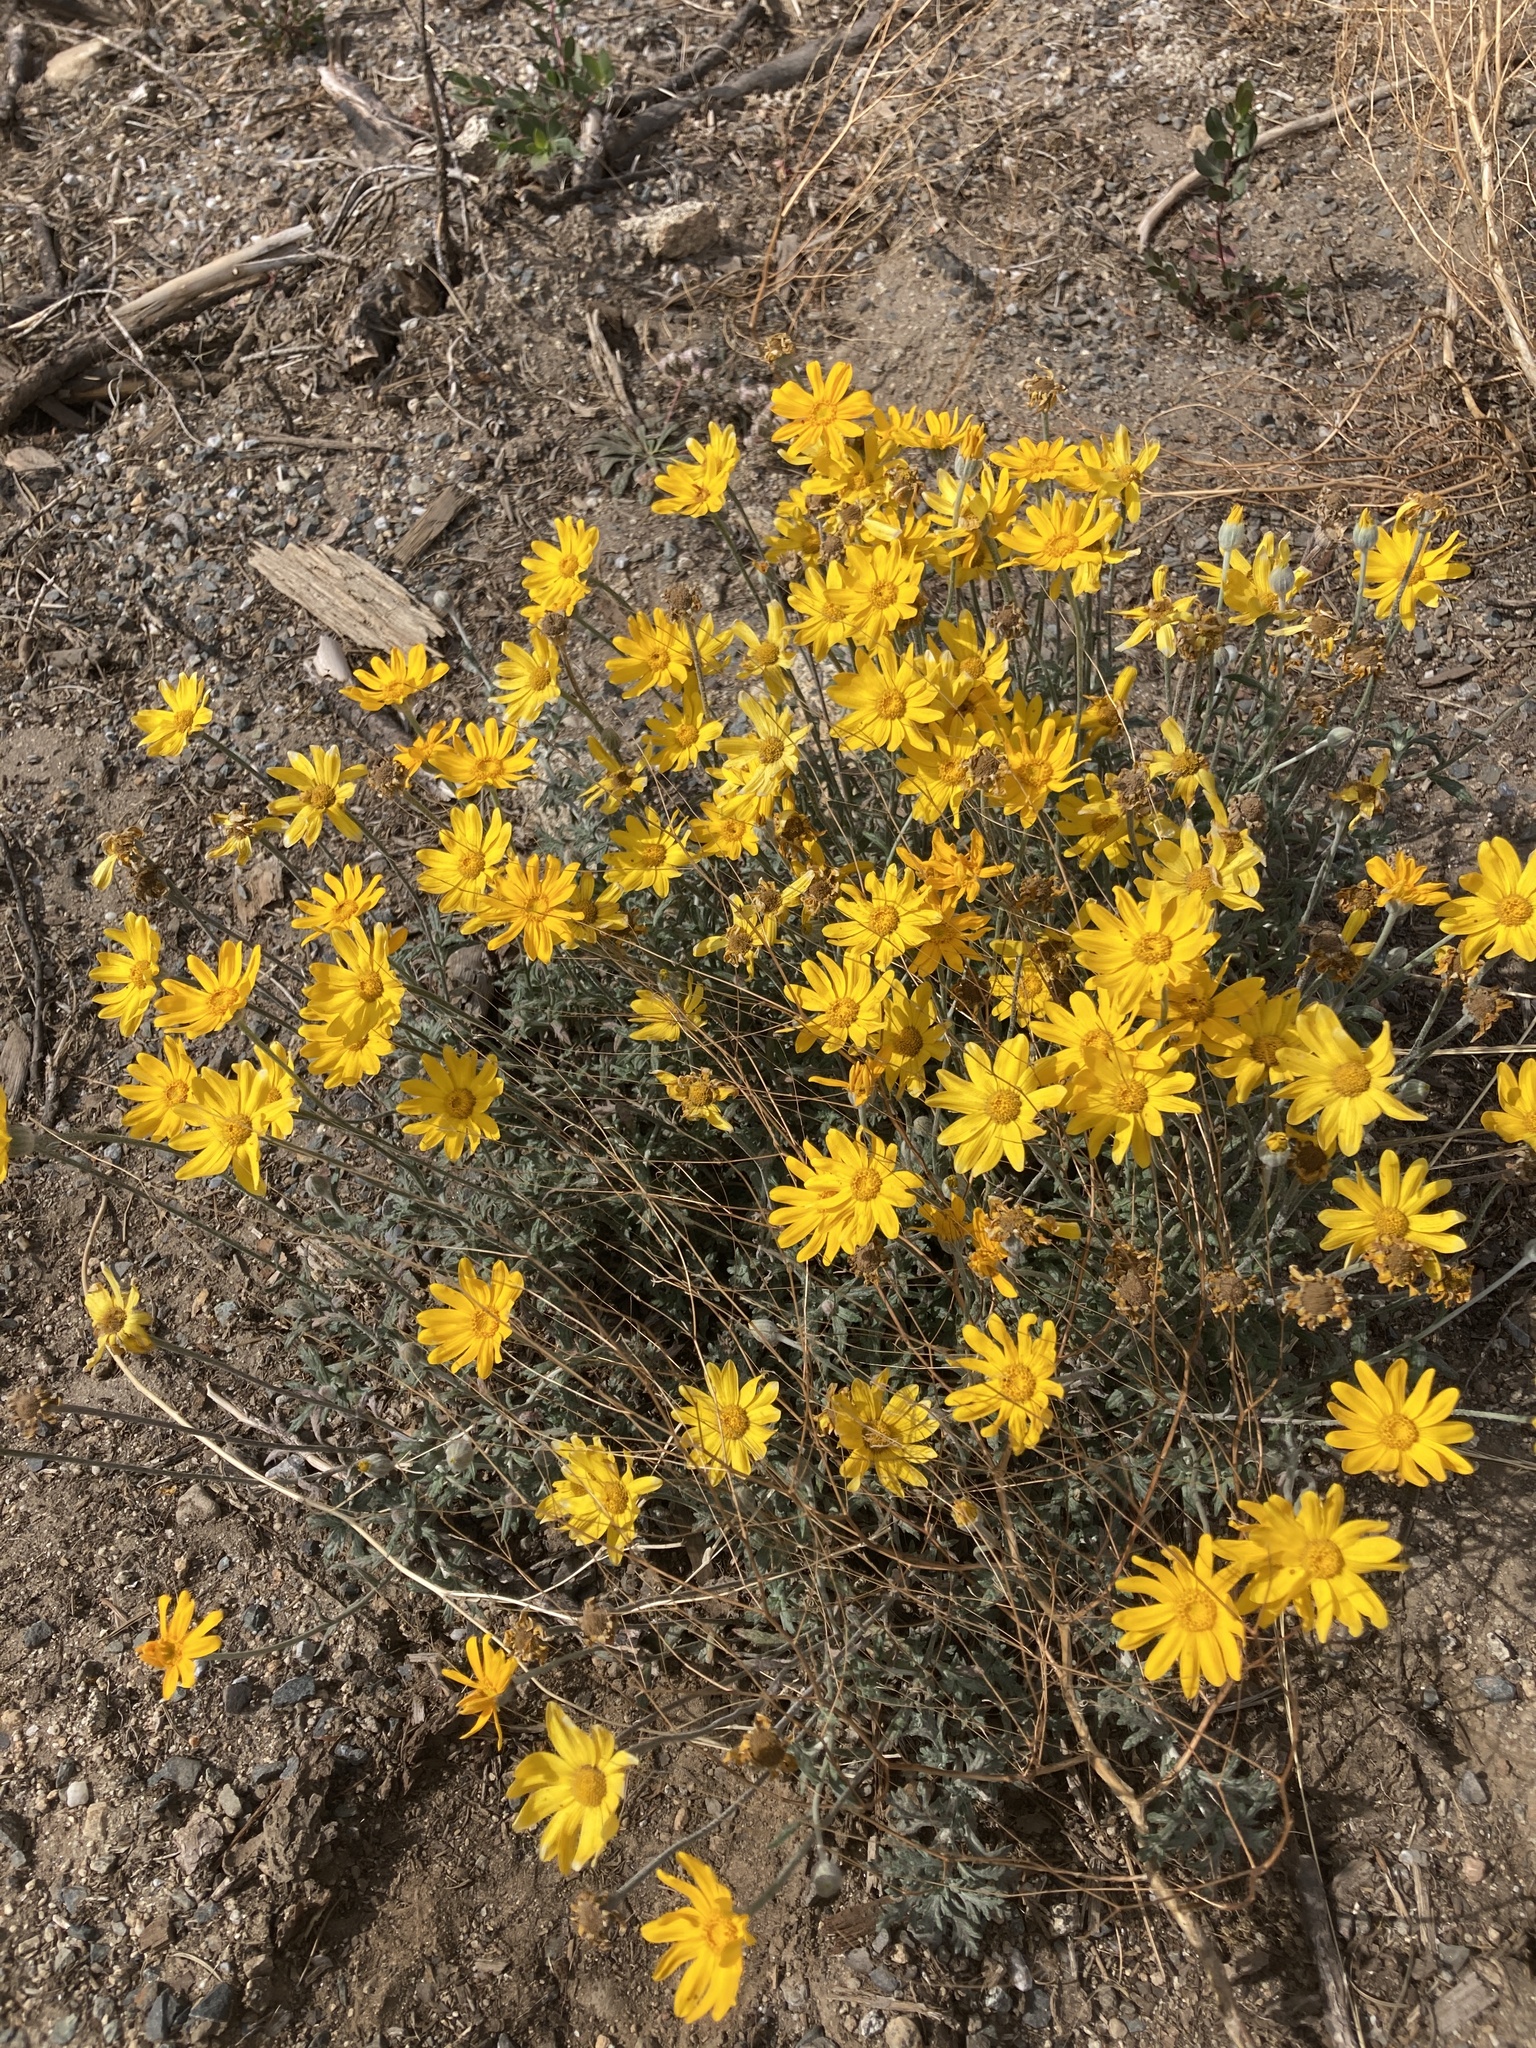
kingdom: Plantae
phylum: Tracheophyta
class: Magnoliopsida
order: Asterales
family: Asteraceae
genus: Eriophyllum
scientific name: Eriophyllum lanatum
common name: Common woolly-sunflower
